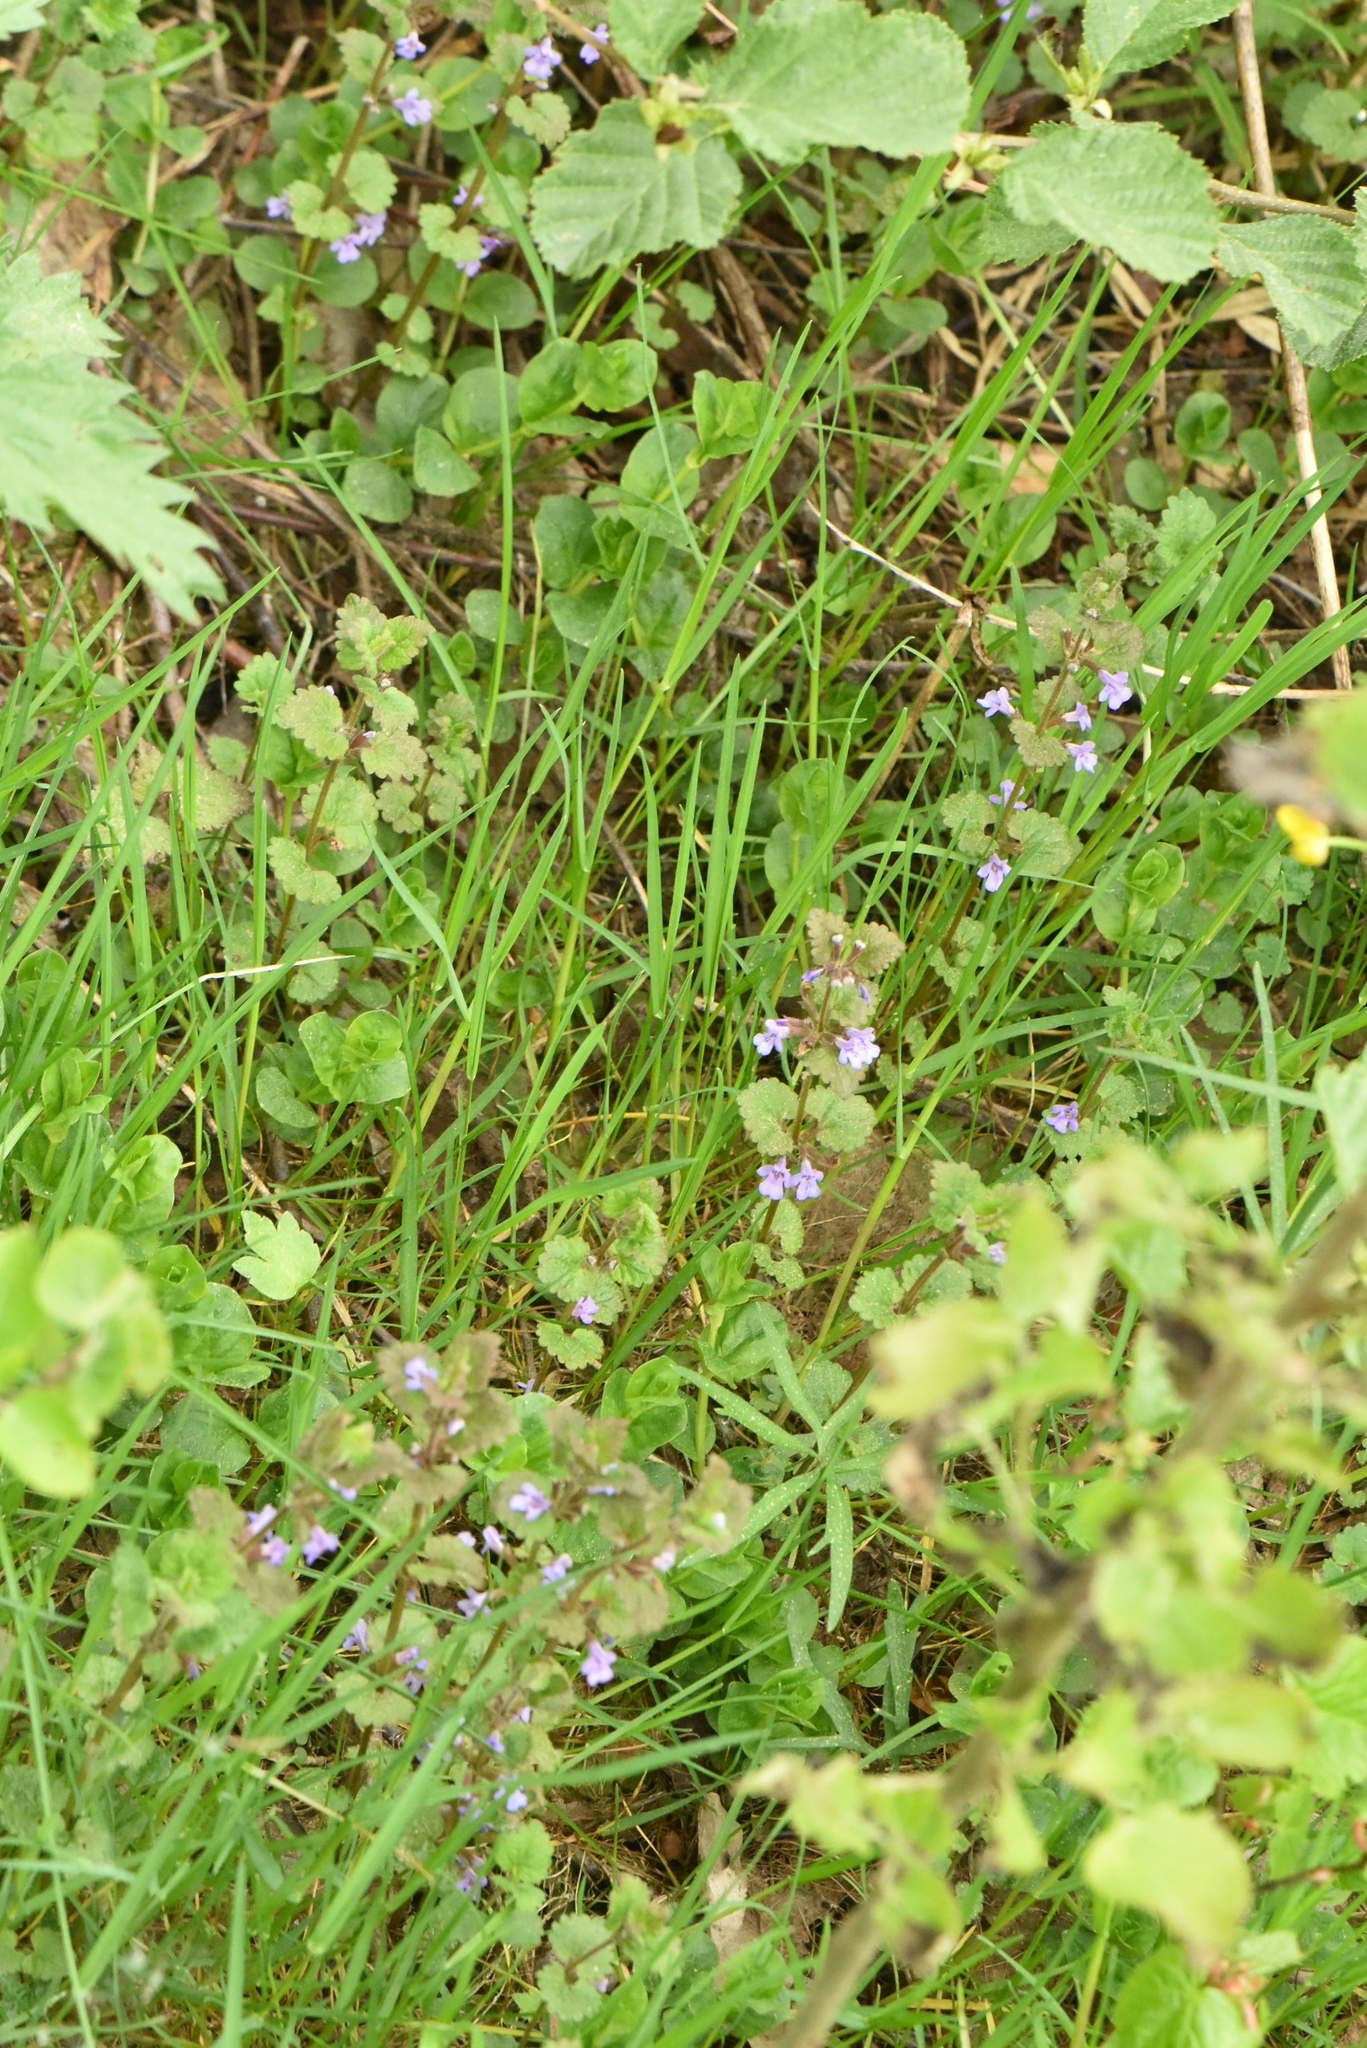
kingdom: Plantae
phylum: Tracheophyta
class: Magnoliopsida
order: Lamiales
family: Lamiaceae
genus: Glechoma
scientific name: Glechoma hederacea
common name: Ground ivy
